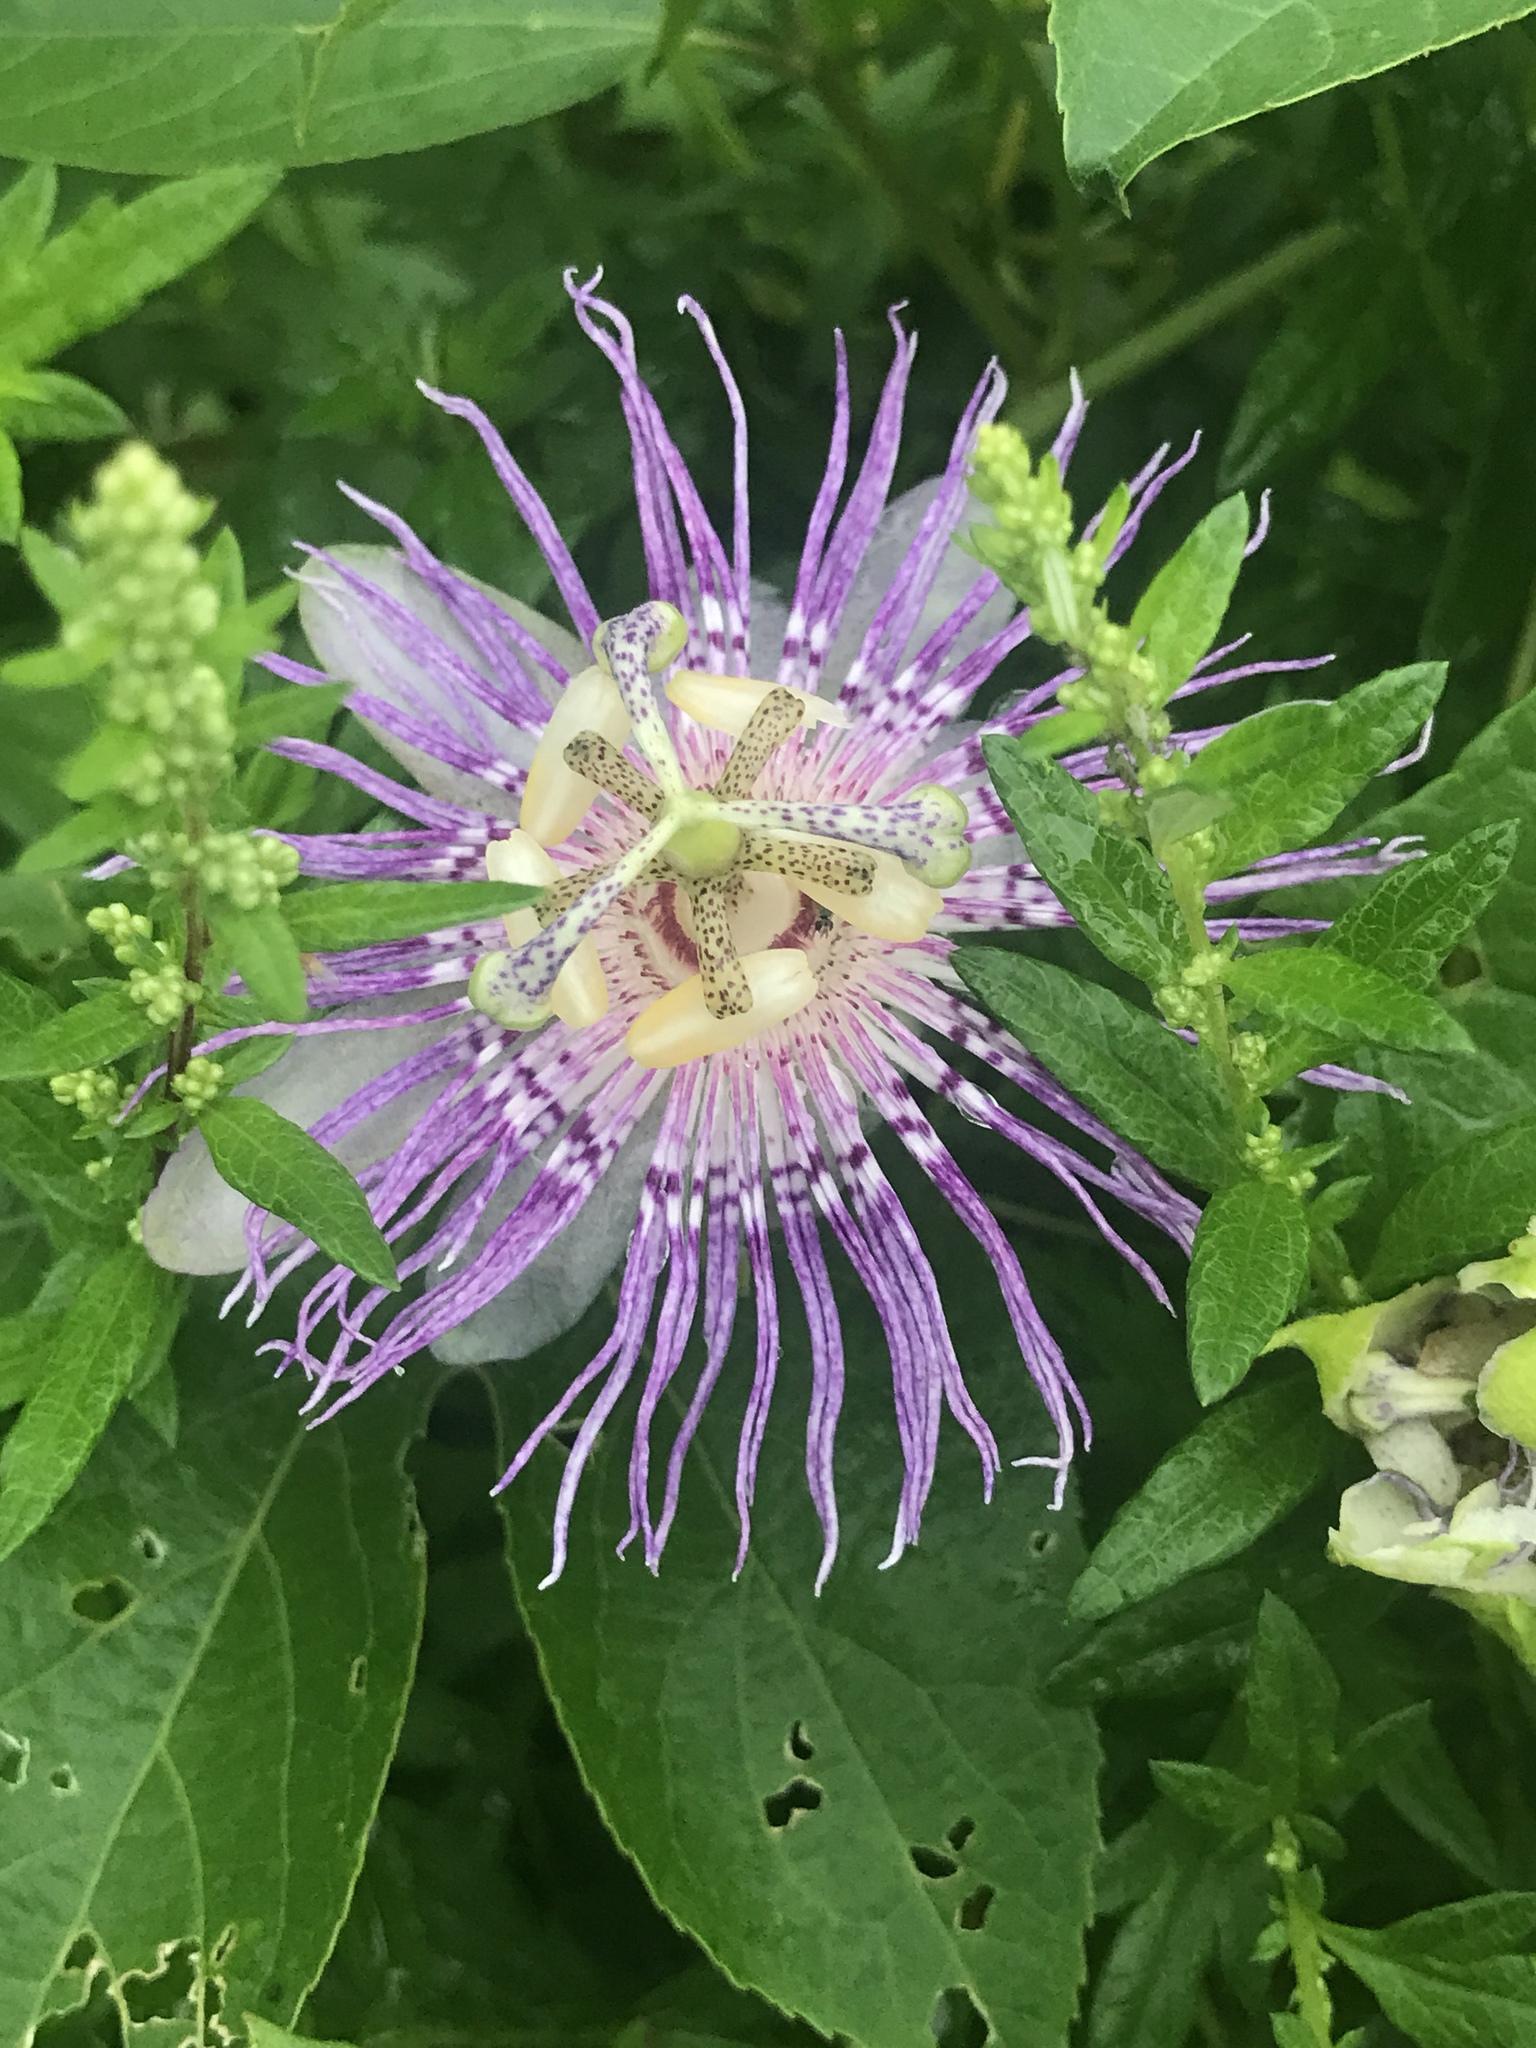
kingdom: Plantae
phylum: Tracheophyta
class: Magnoliopsida
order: Malpighiales
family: Passifloraceae
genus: Passiflora
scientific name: Passiflora incarnata
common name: Apricot-vine
